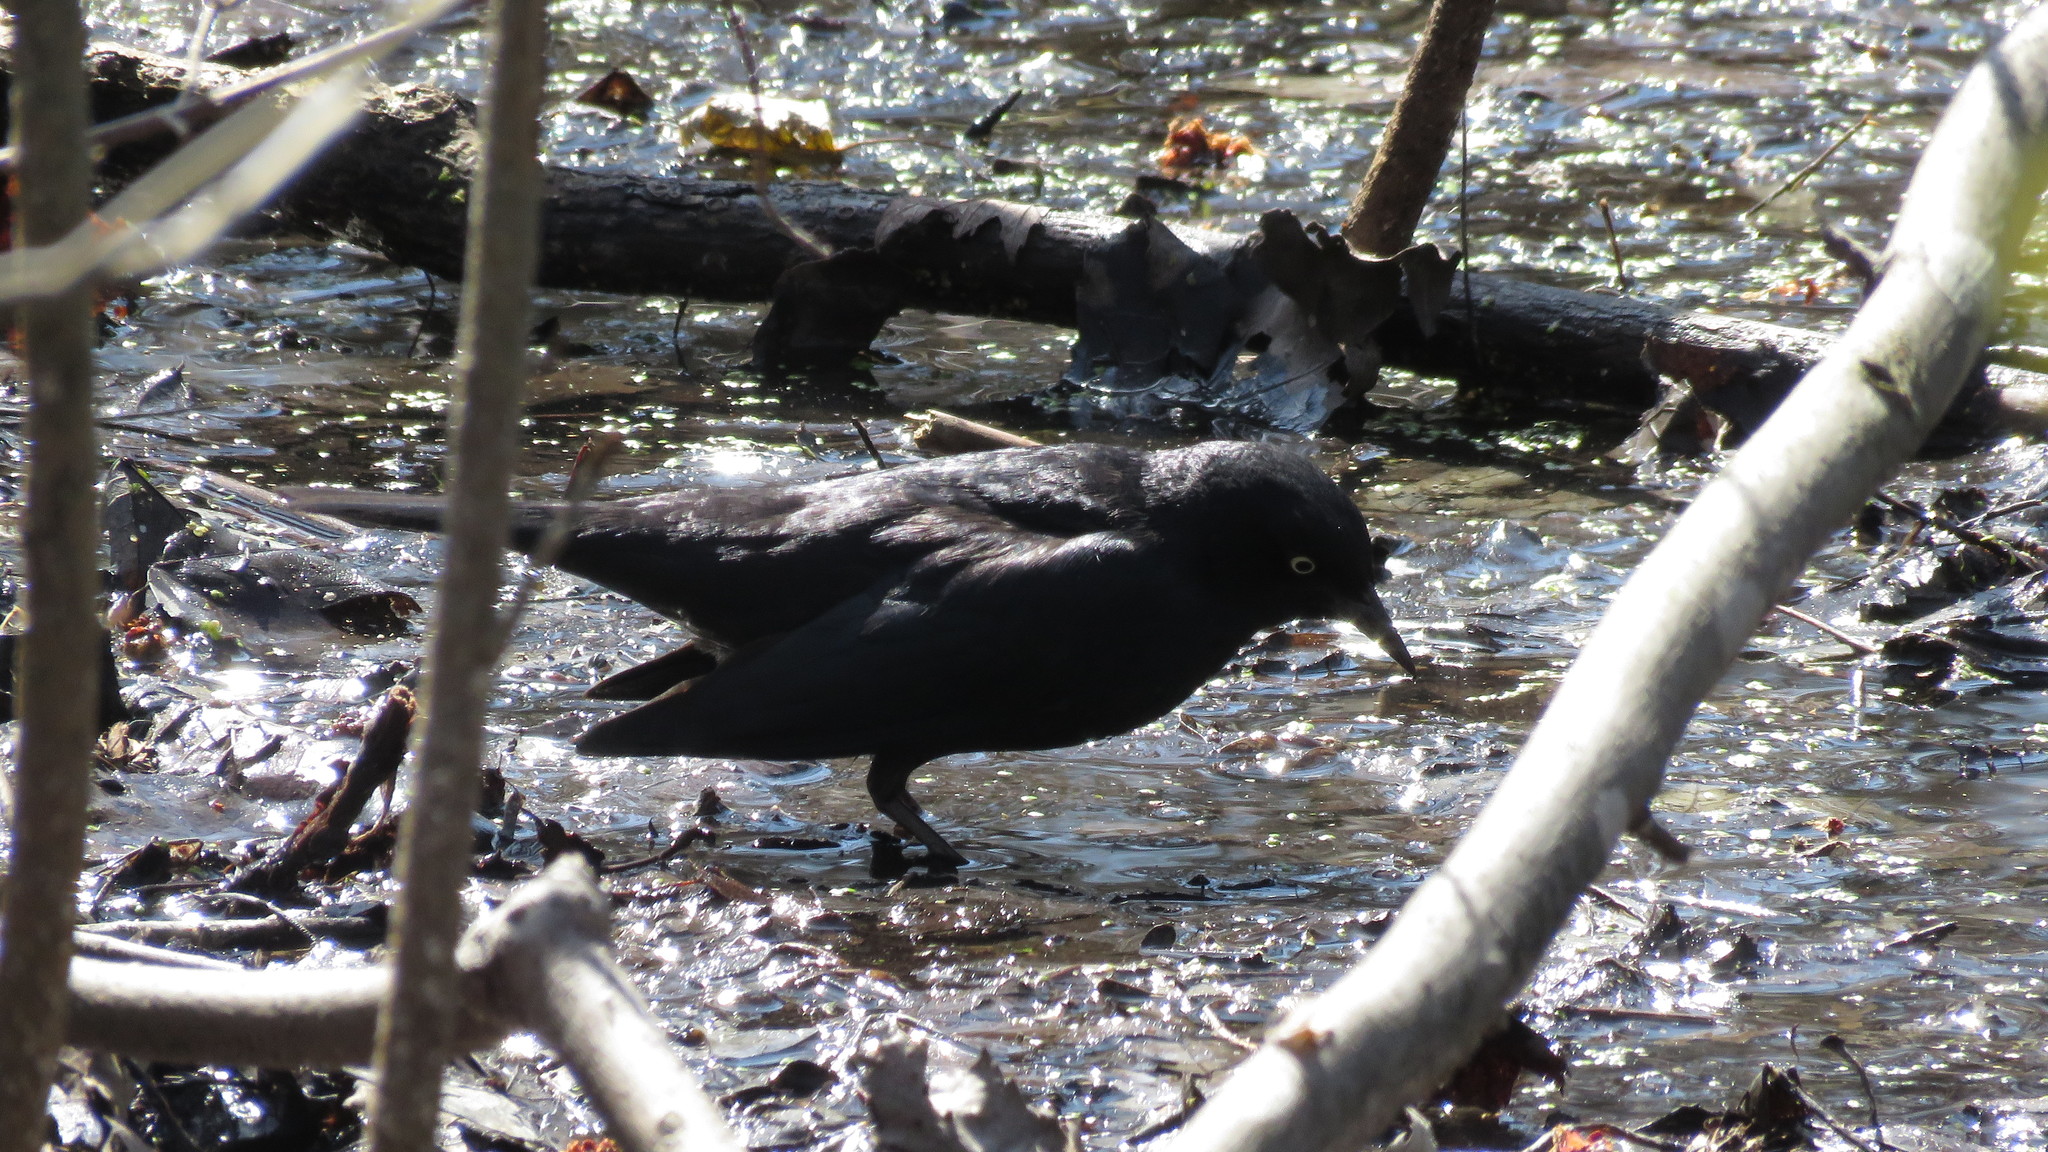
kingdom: Animalia
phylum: Chordata
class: Aves
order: Passeriformes
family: Icteridae
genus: Euphagus
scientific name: Euphagus carolinus
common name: Rusty blackbird
